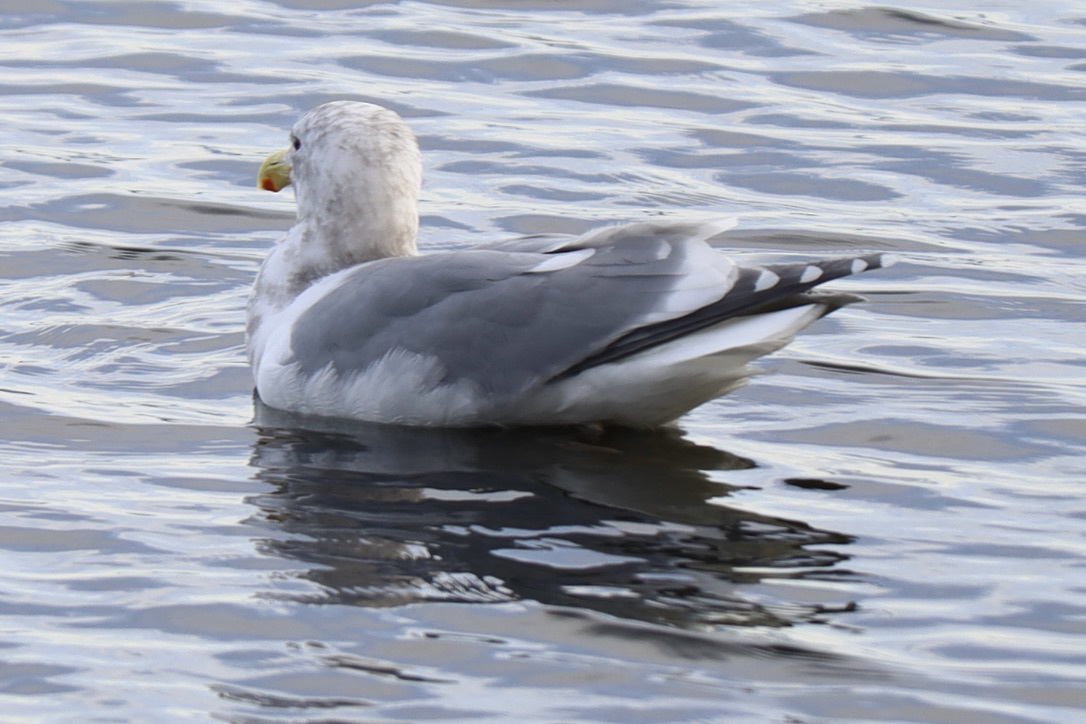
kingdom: Animalia
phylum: Chordata
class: Aves
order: Charadriiformes
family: Laridae
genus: Larus
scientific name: Larus
